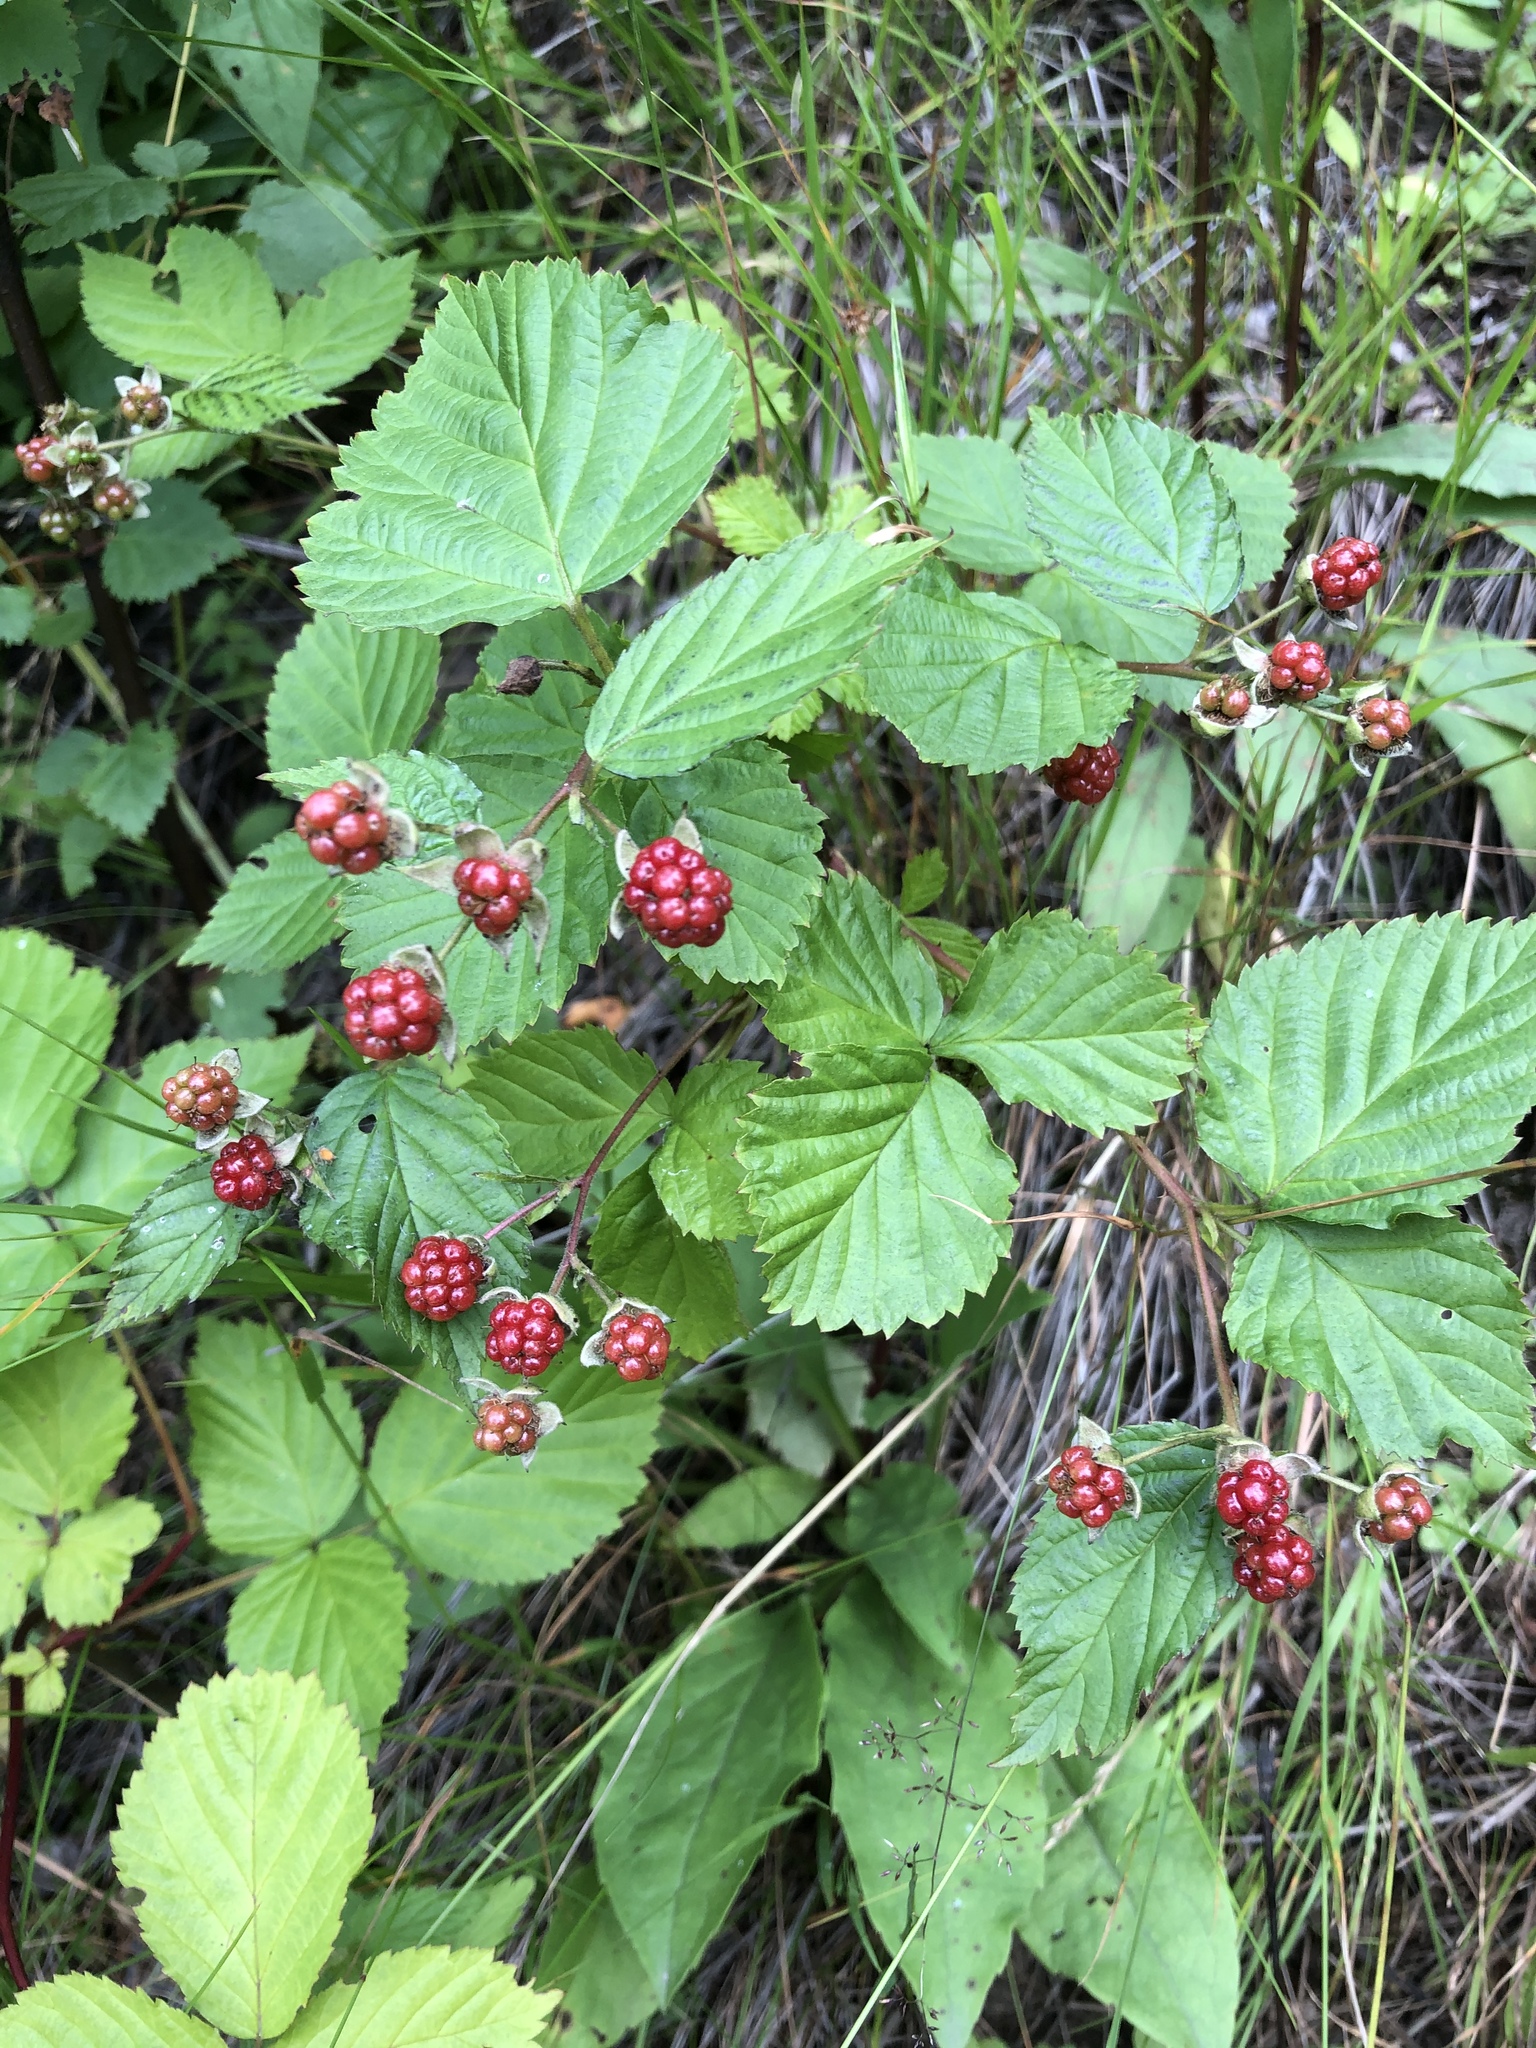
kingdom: Plantae
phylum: Tracheophyta
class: Magnoliopsida
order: Rosales
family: Rosaceae
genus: Rubus
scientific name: Rubus polonicus
